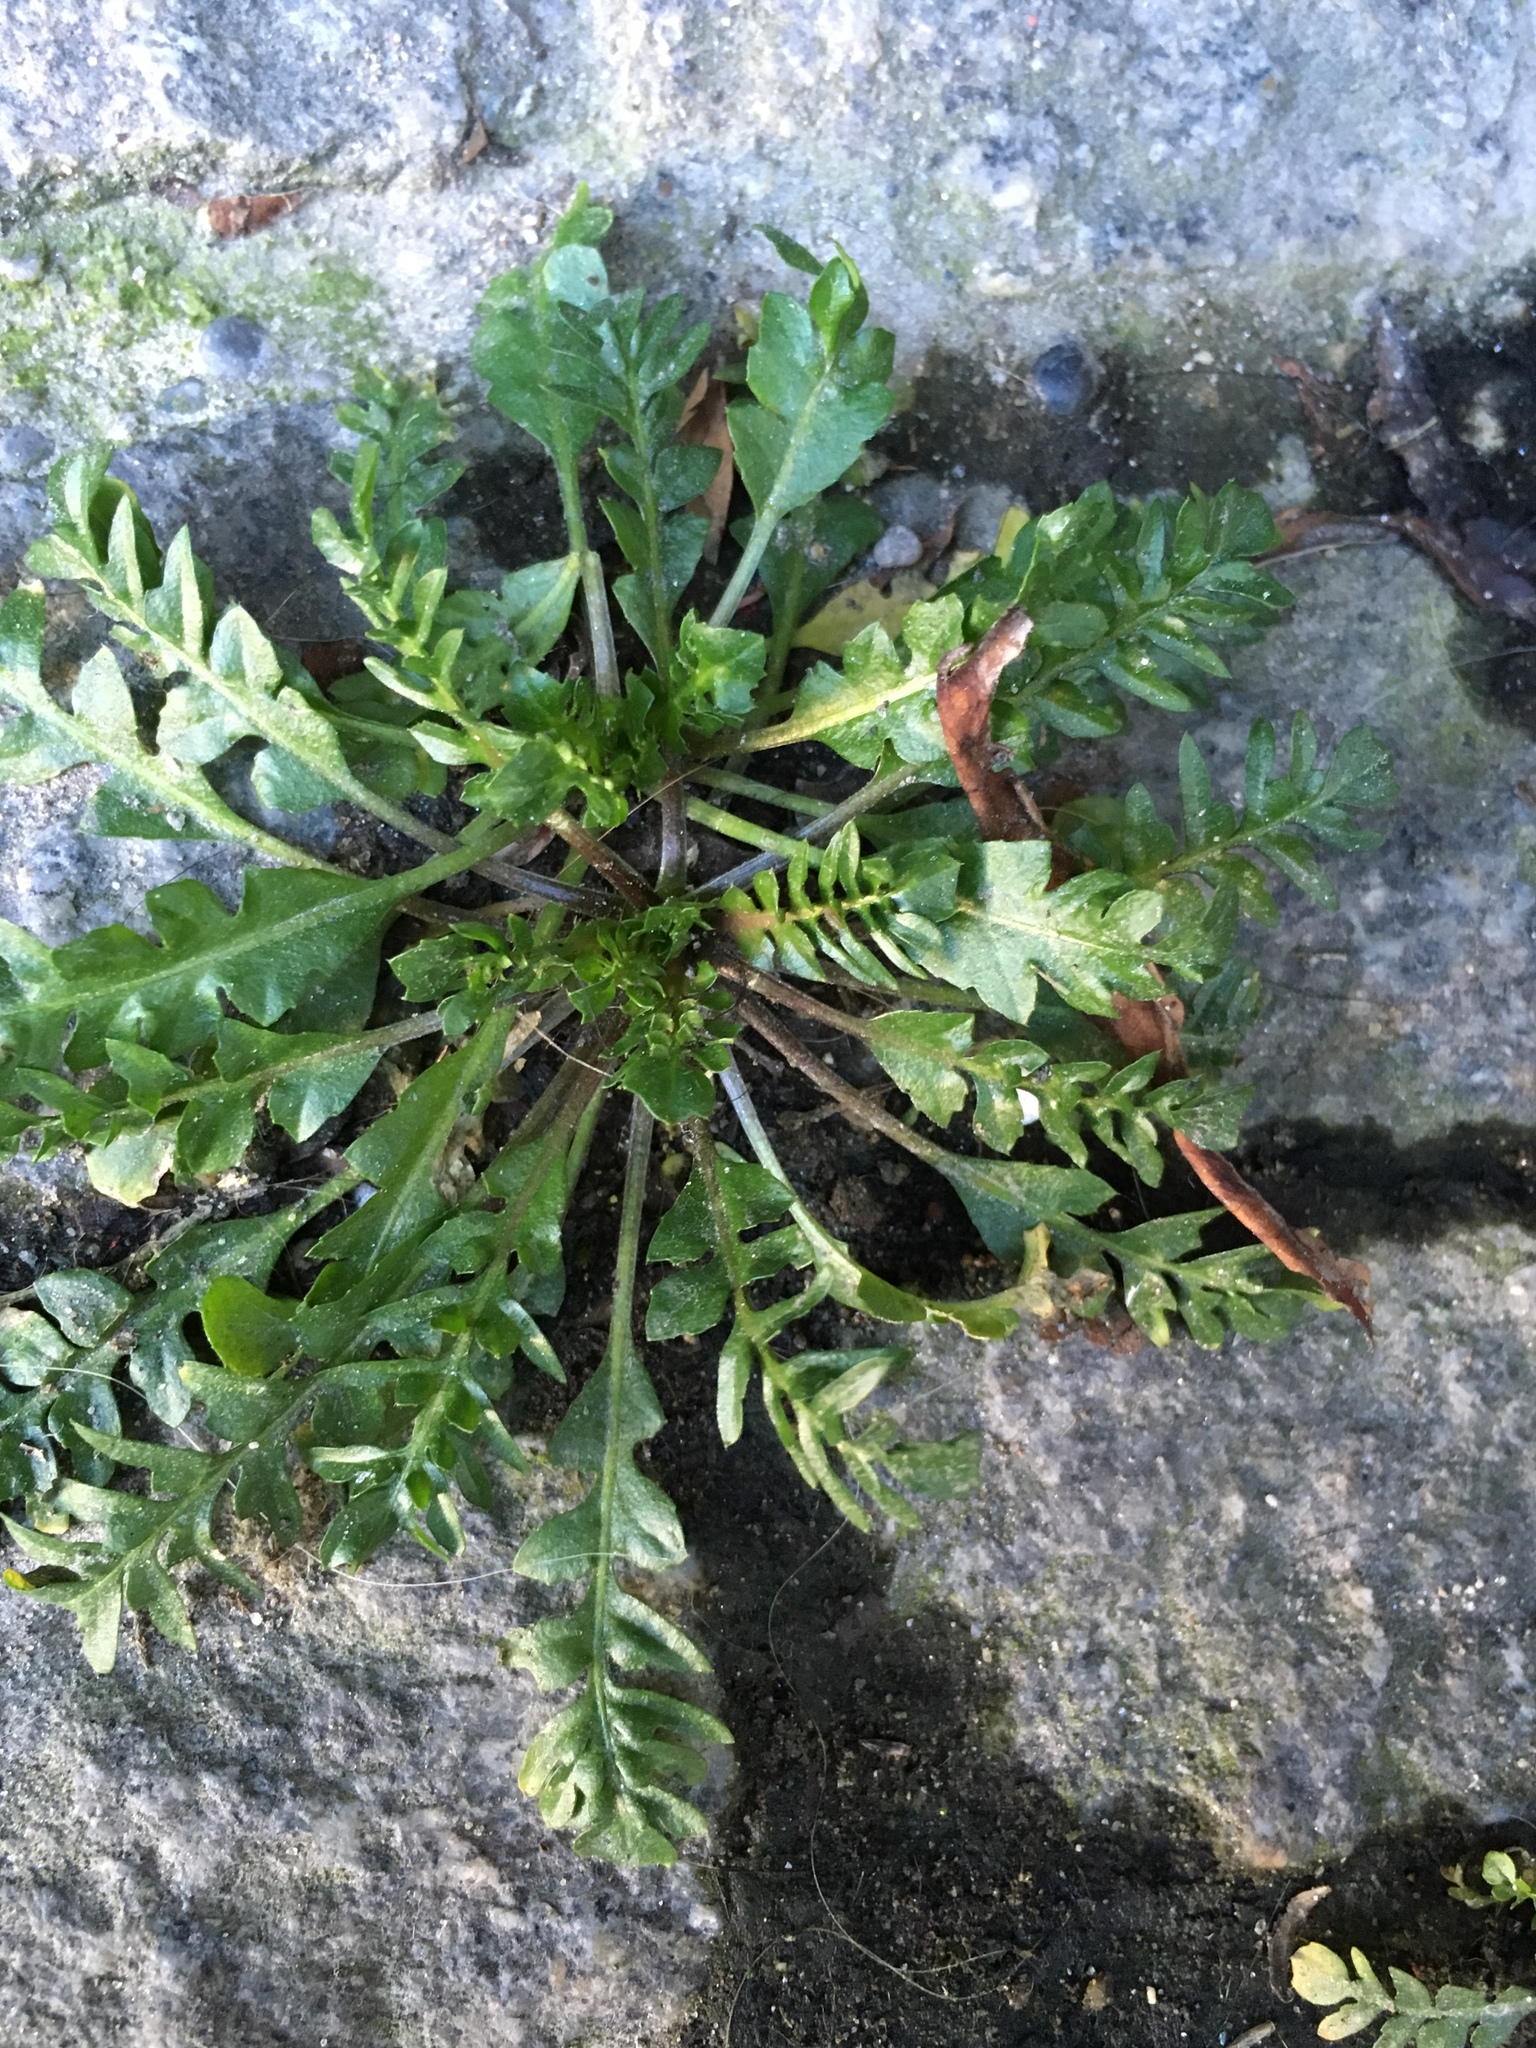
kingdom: Plantae
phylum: Tracheophyta
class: Magnoliopsida
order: Brassicales
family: Brassicaceae
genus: Capsella
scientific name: Capsella bursa-pastoris
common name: Shepherd's purse
